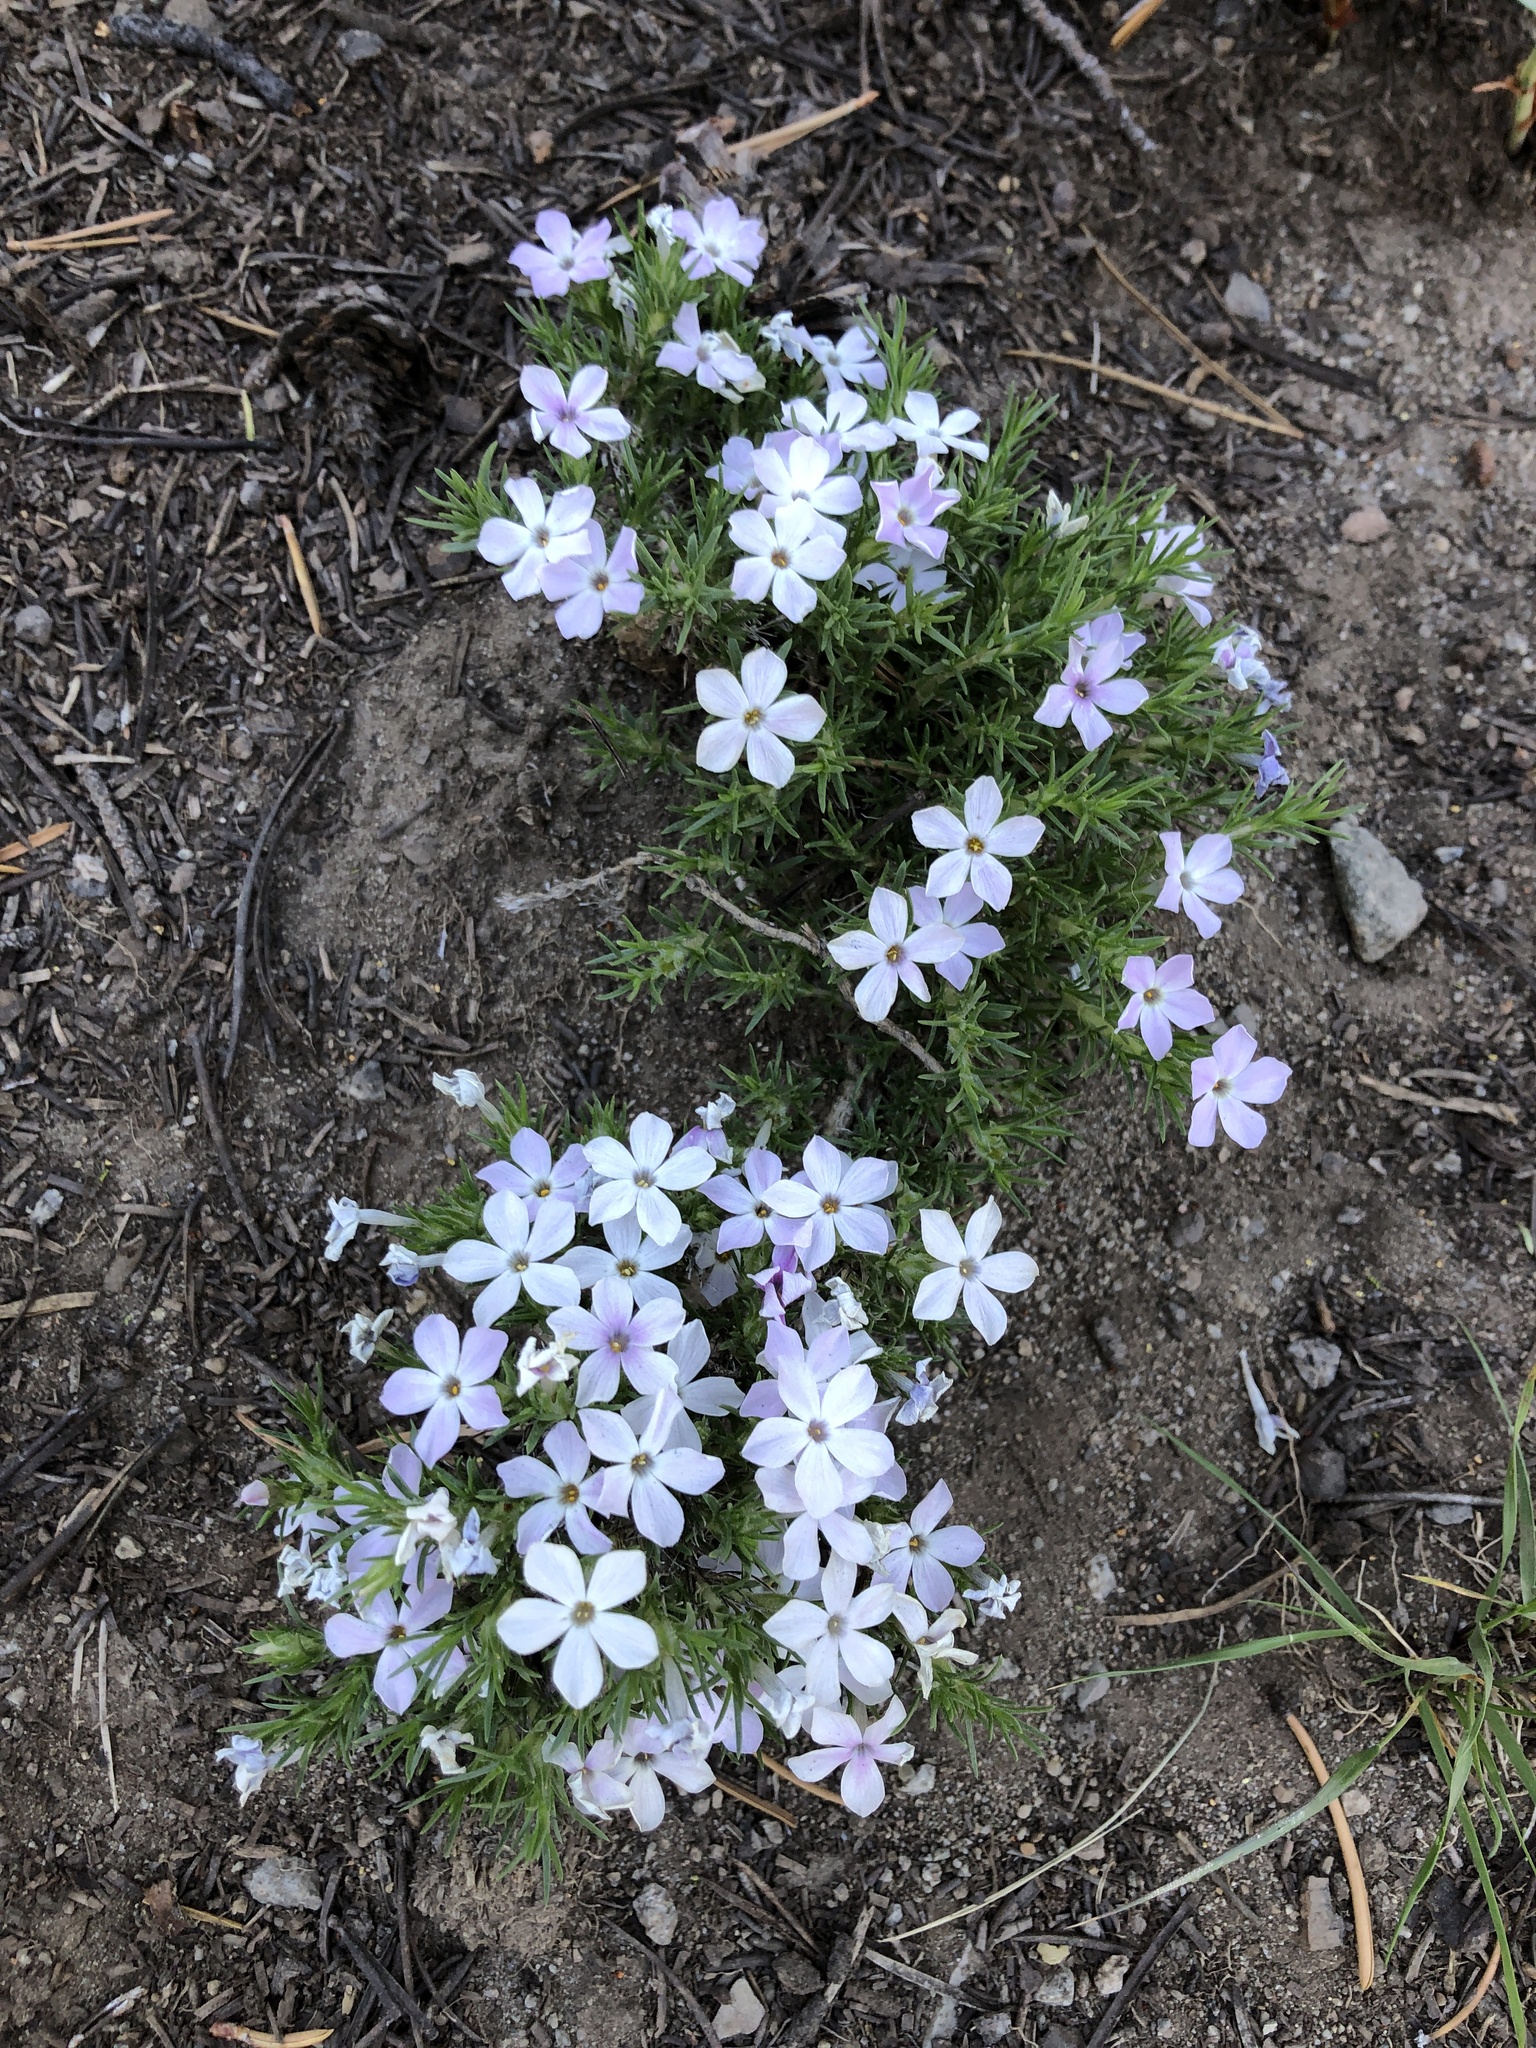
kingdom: Plantae
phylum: Tracheophyta
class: Magnoliopsida
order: Ericales
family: Polemoniaceae
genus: Phlox
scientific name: Phlox diffusa
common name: Mat phlox
